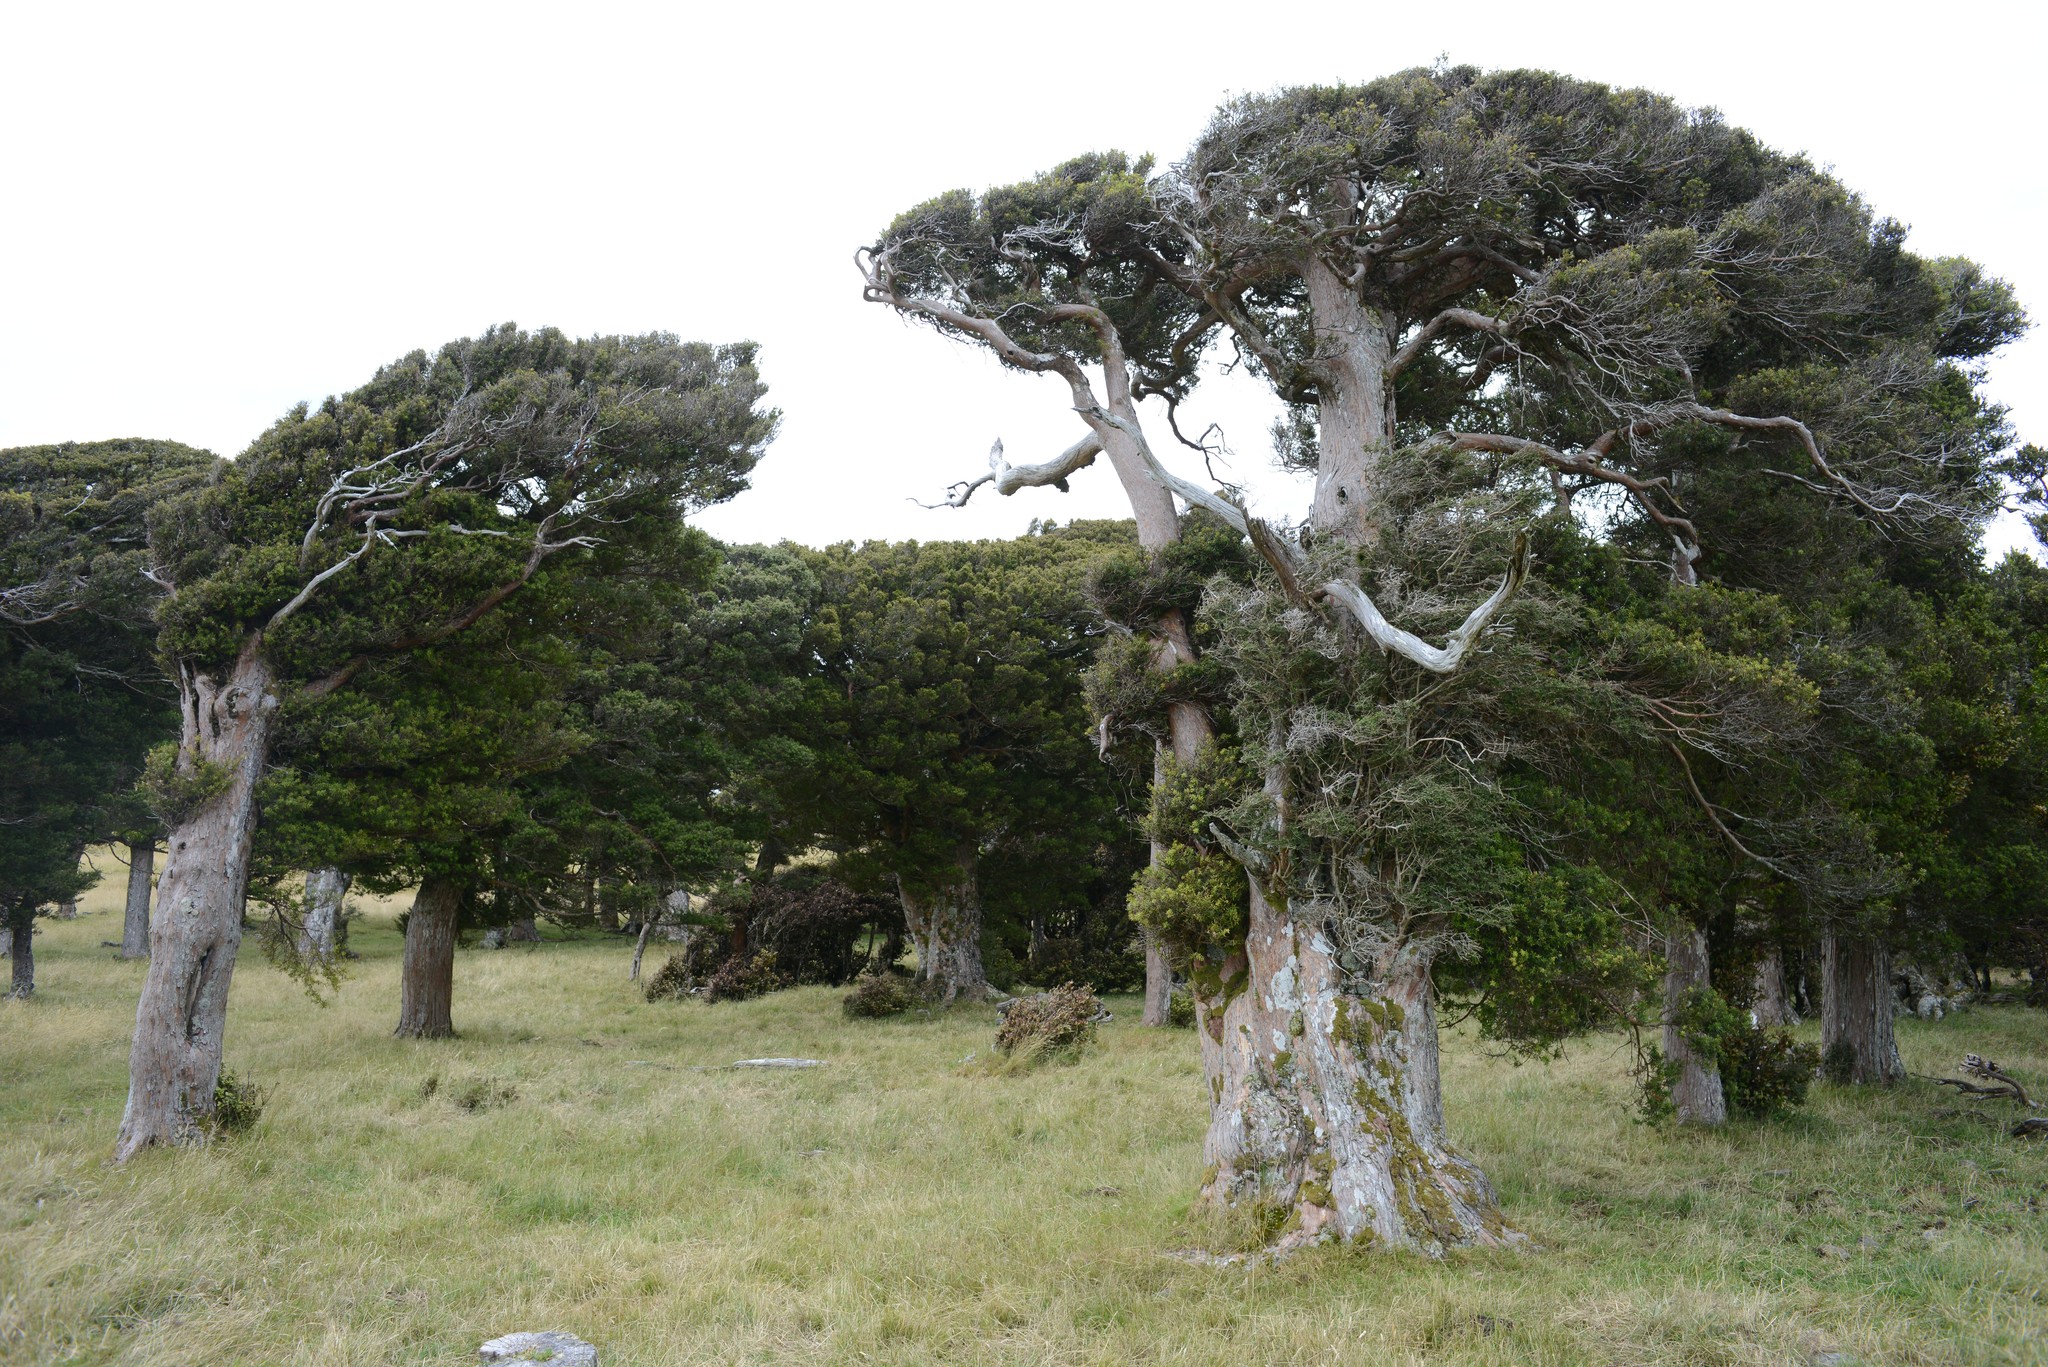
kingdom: Plantae
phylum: Tracheophyta
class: Pinopsida
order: Pinales
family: Podocarpaceae
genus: Podocarpus
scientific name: Podocarpus laetus
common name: Hall's totara
